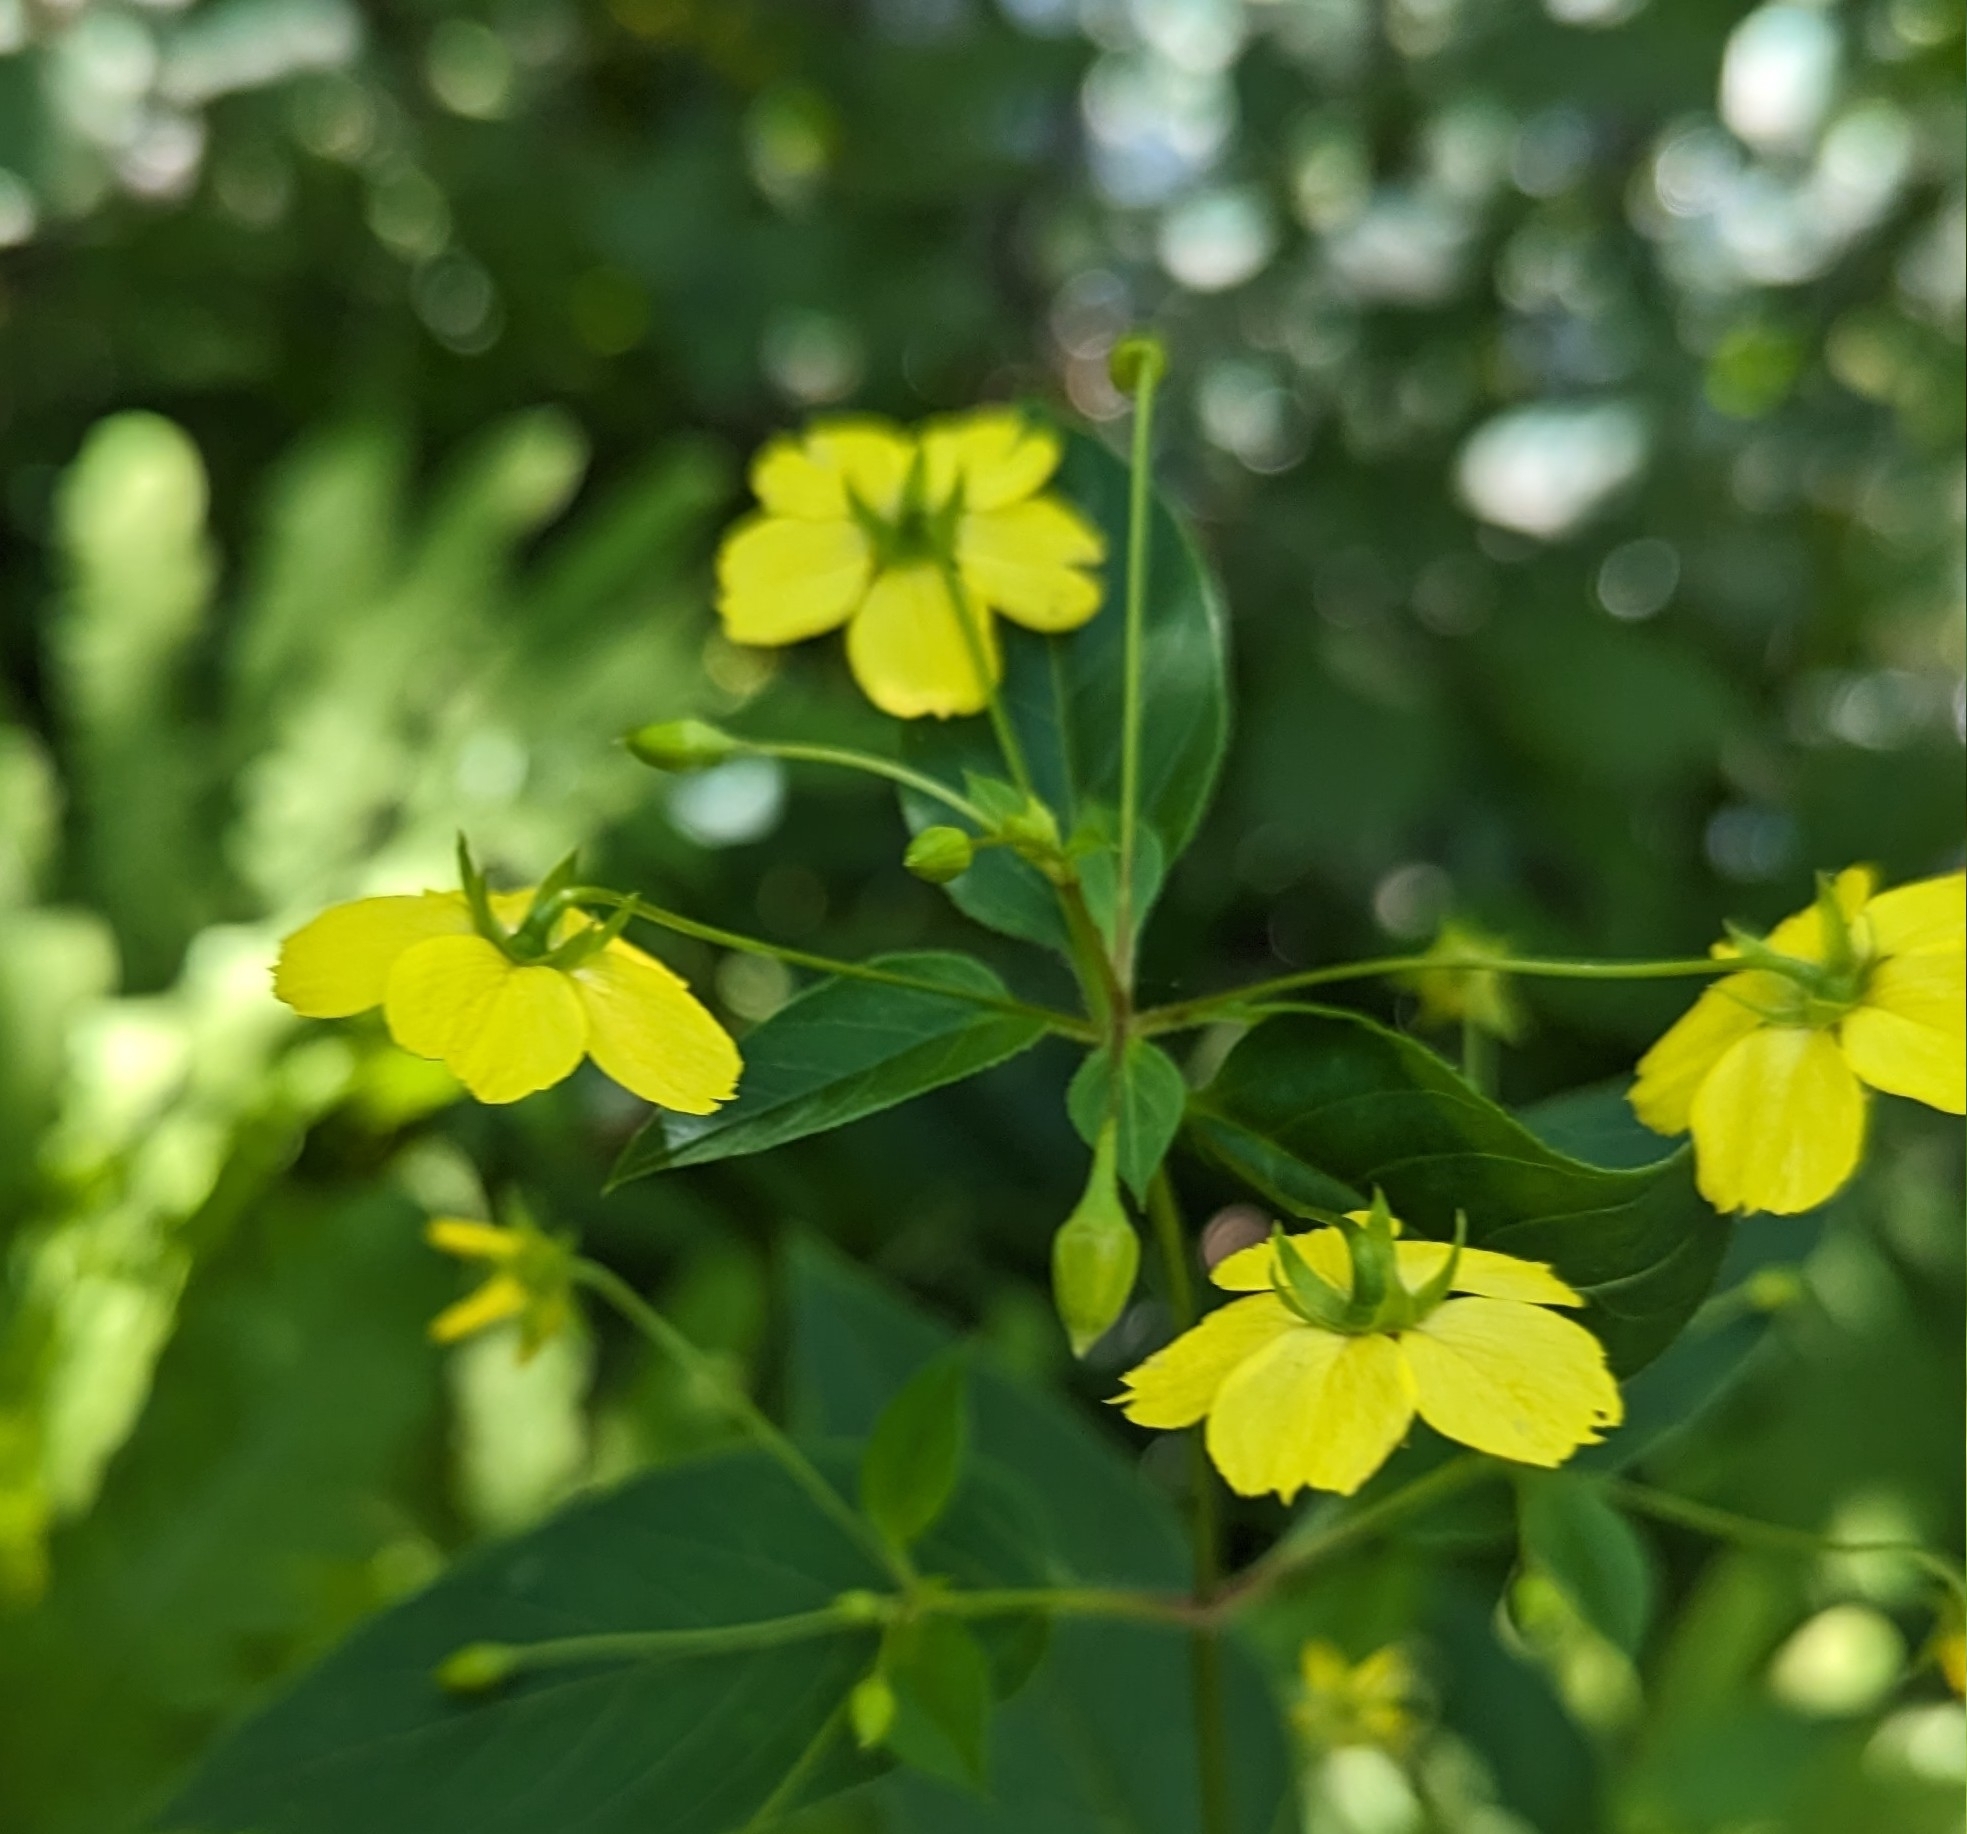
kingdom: Plantae
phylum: Tracheophyta
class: Magnoliopsida
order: Ericales
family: Primulaceae
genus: Lysimachia
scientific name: Lysimachia ciliata
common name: Fringed loosestrife
